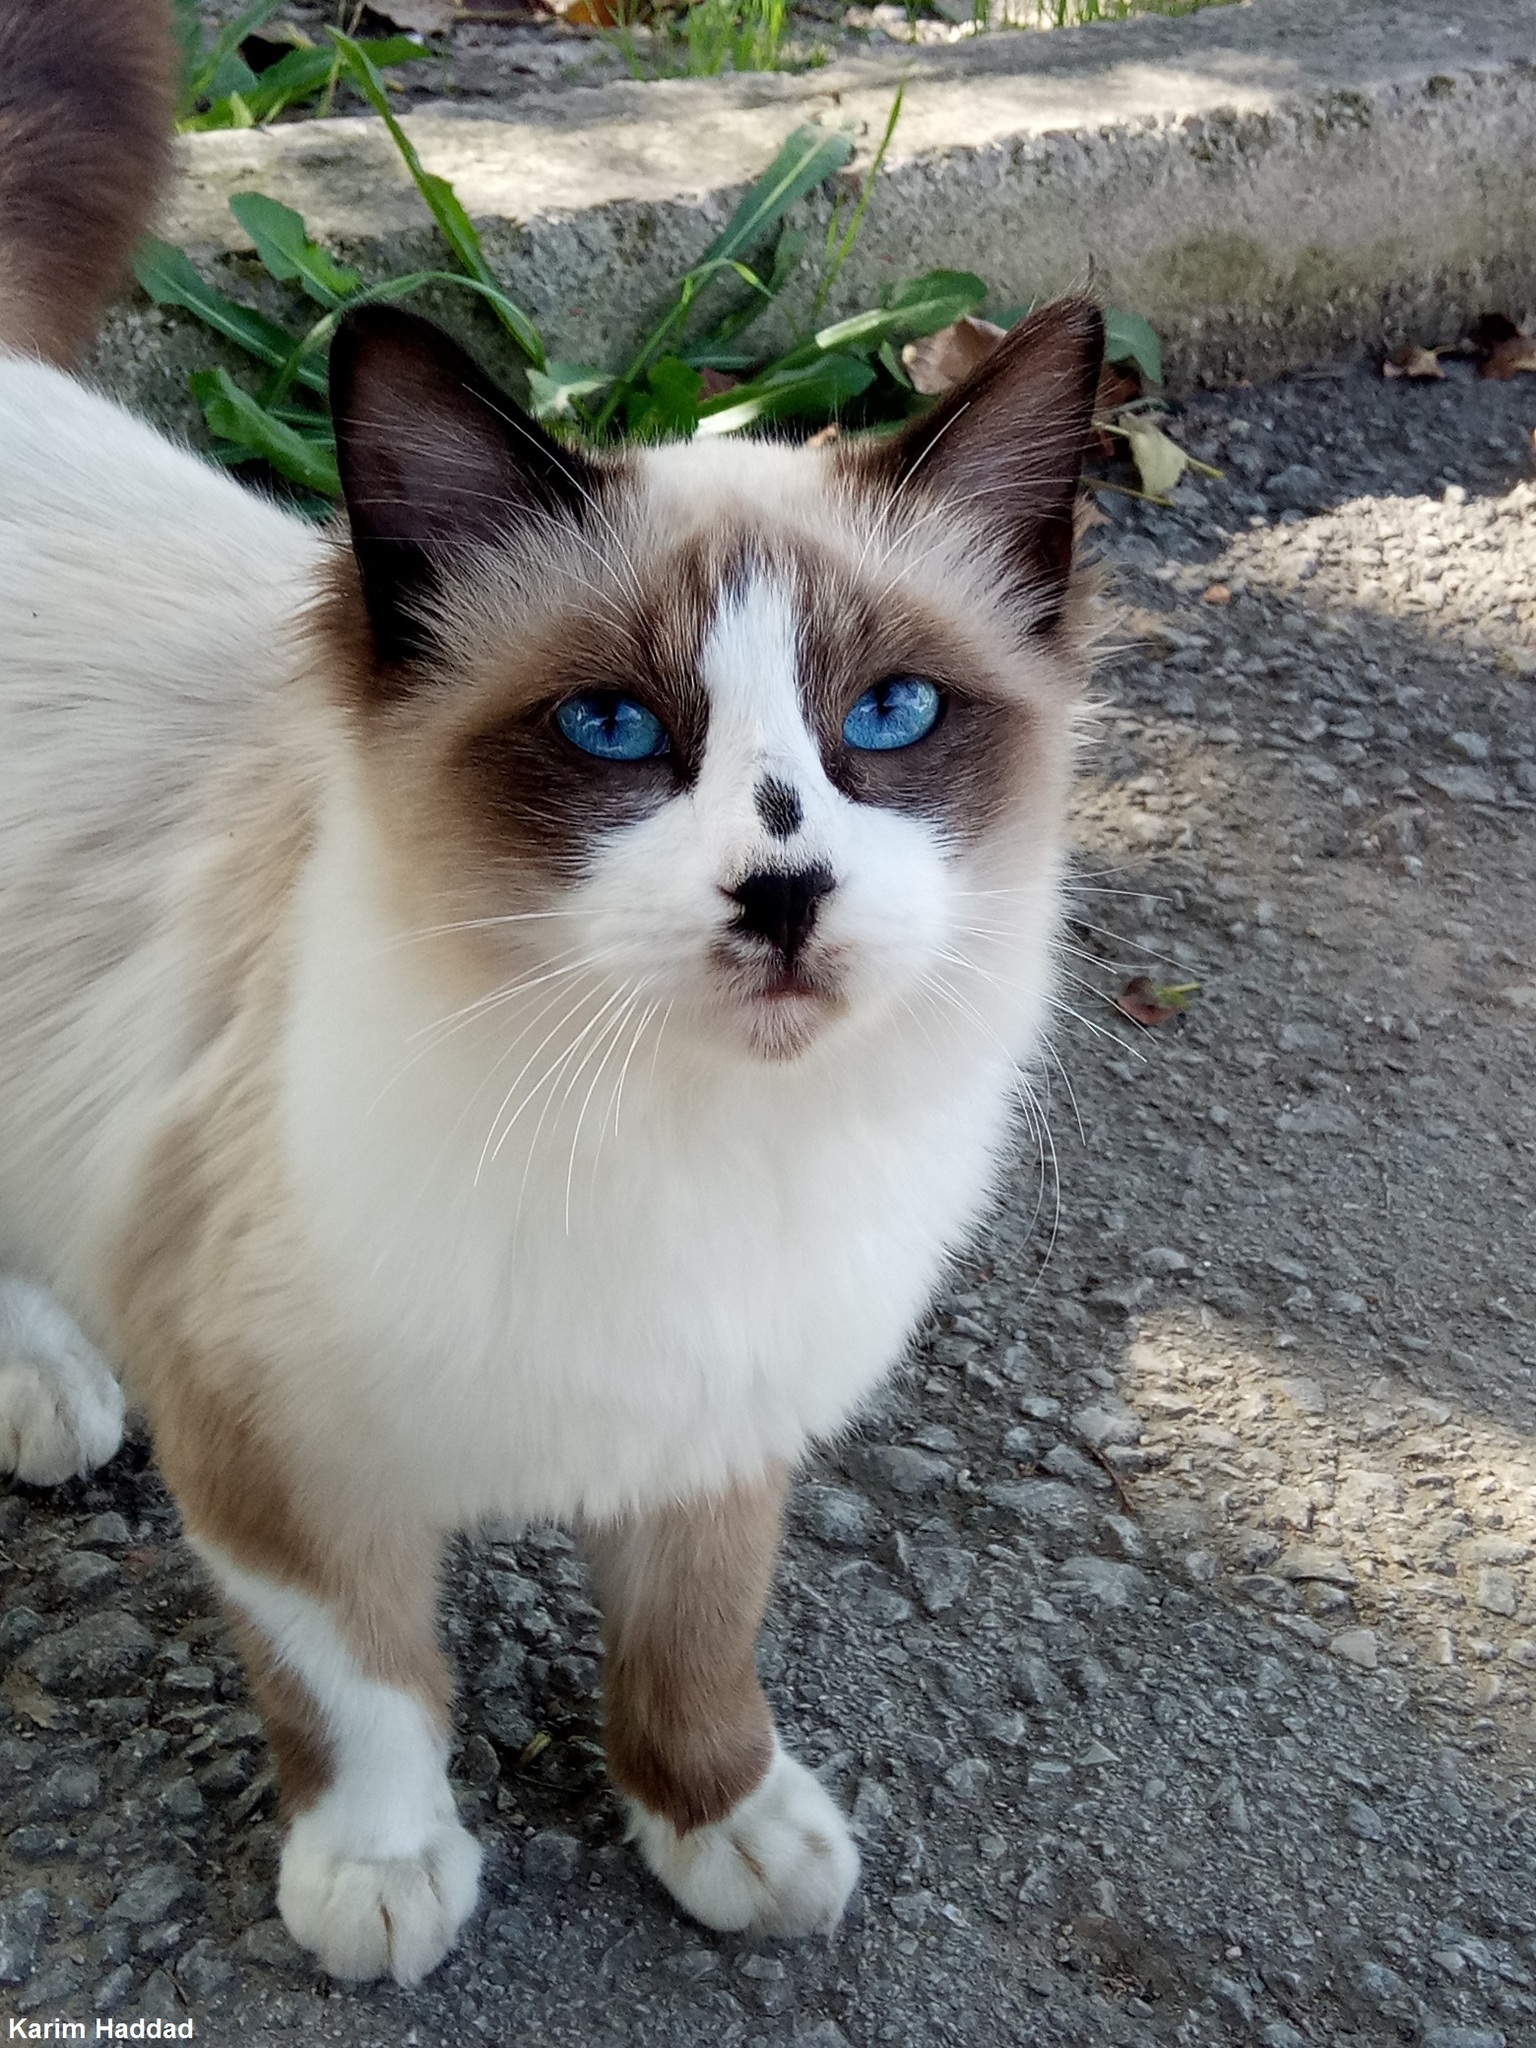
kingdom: Animalia
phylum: Chordata
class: Mammalia
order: Carnivora
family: Felidae
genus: Felis
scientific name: Felis catus
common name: Domestic cat
